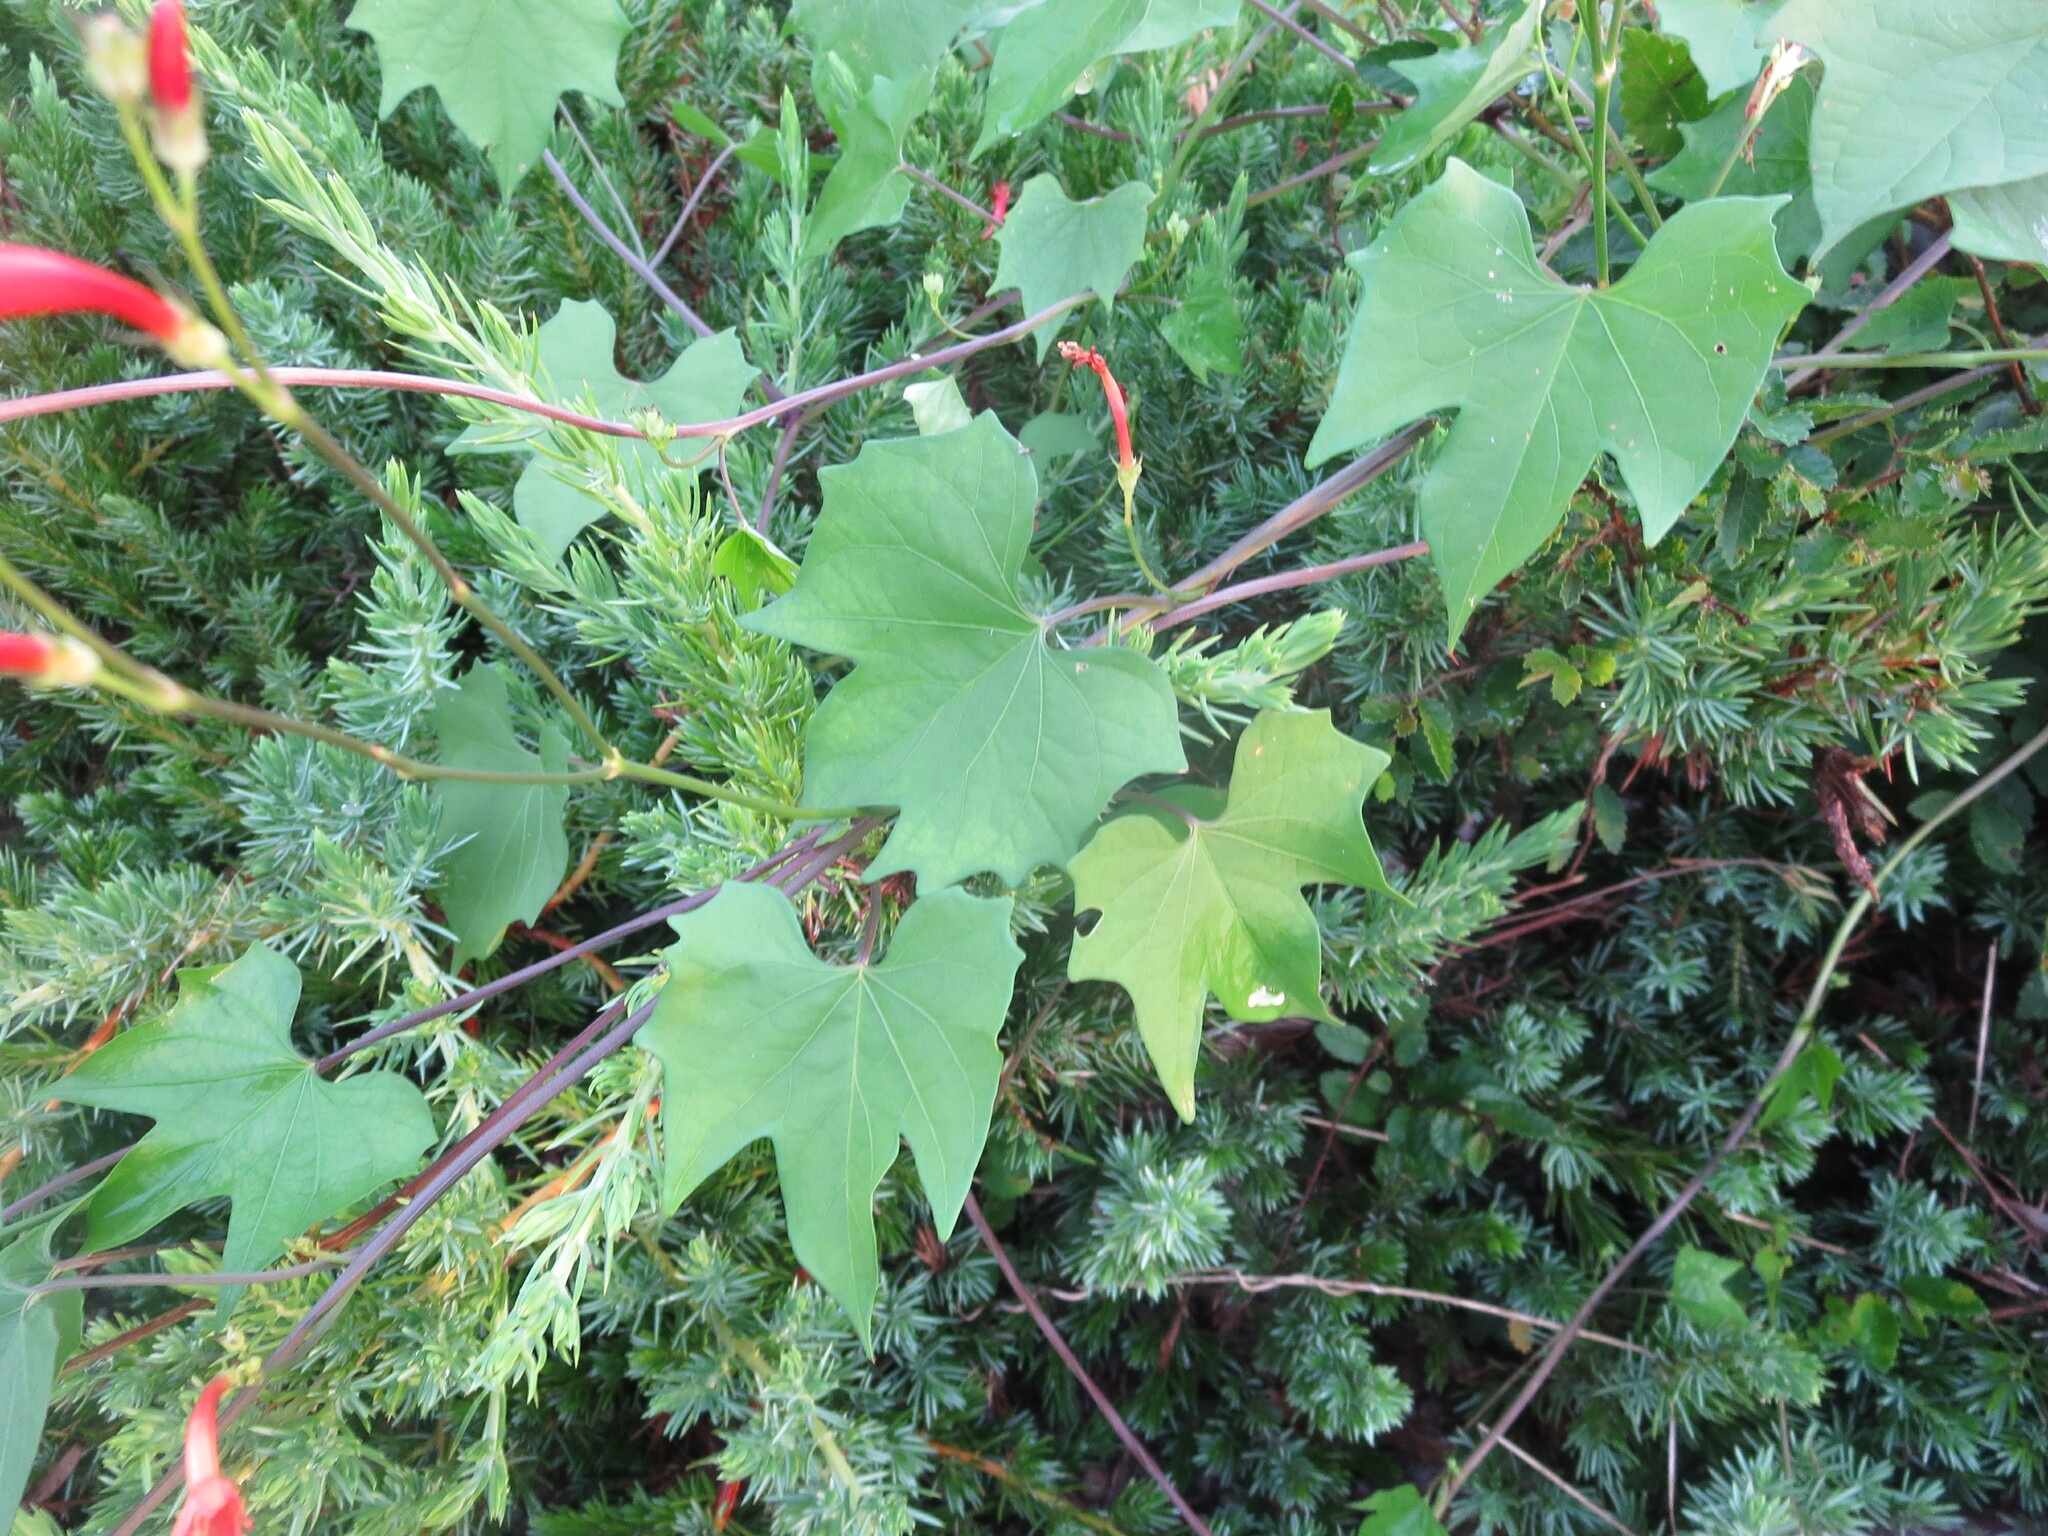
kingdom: Plantae
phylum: Tracheophyta
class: Magnoliopsida
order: Solanales
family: Convolvulaceae
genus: Ipomoea
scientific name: Ipomoea hederifolia
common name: Ivy-leaf morning-glory
